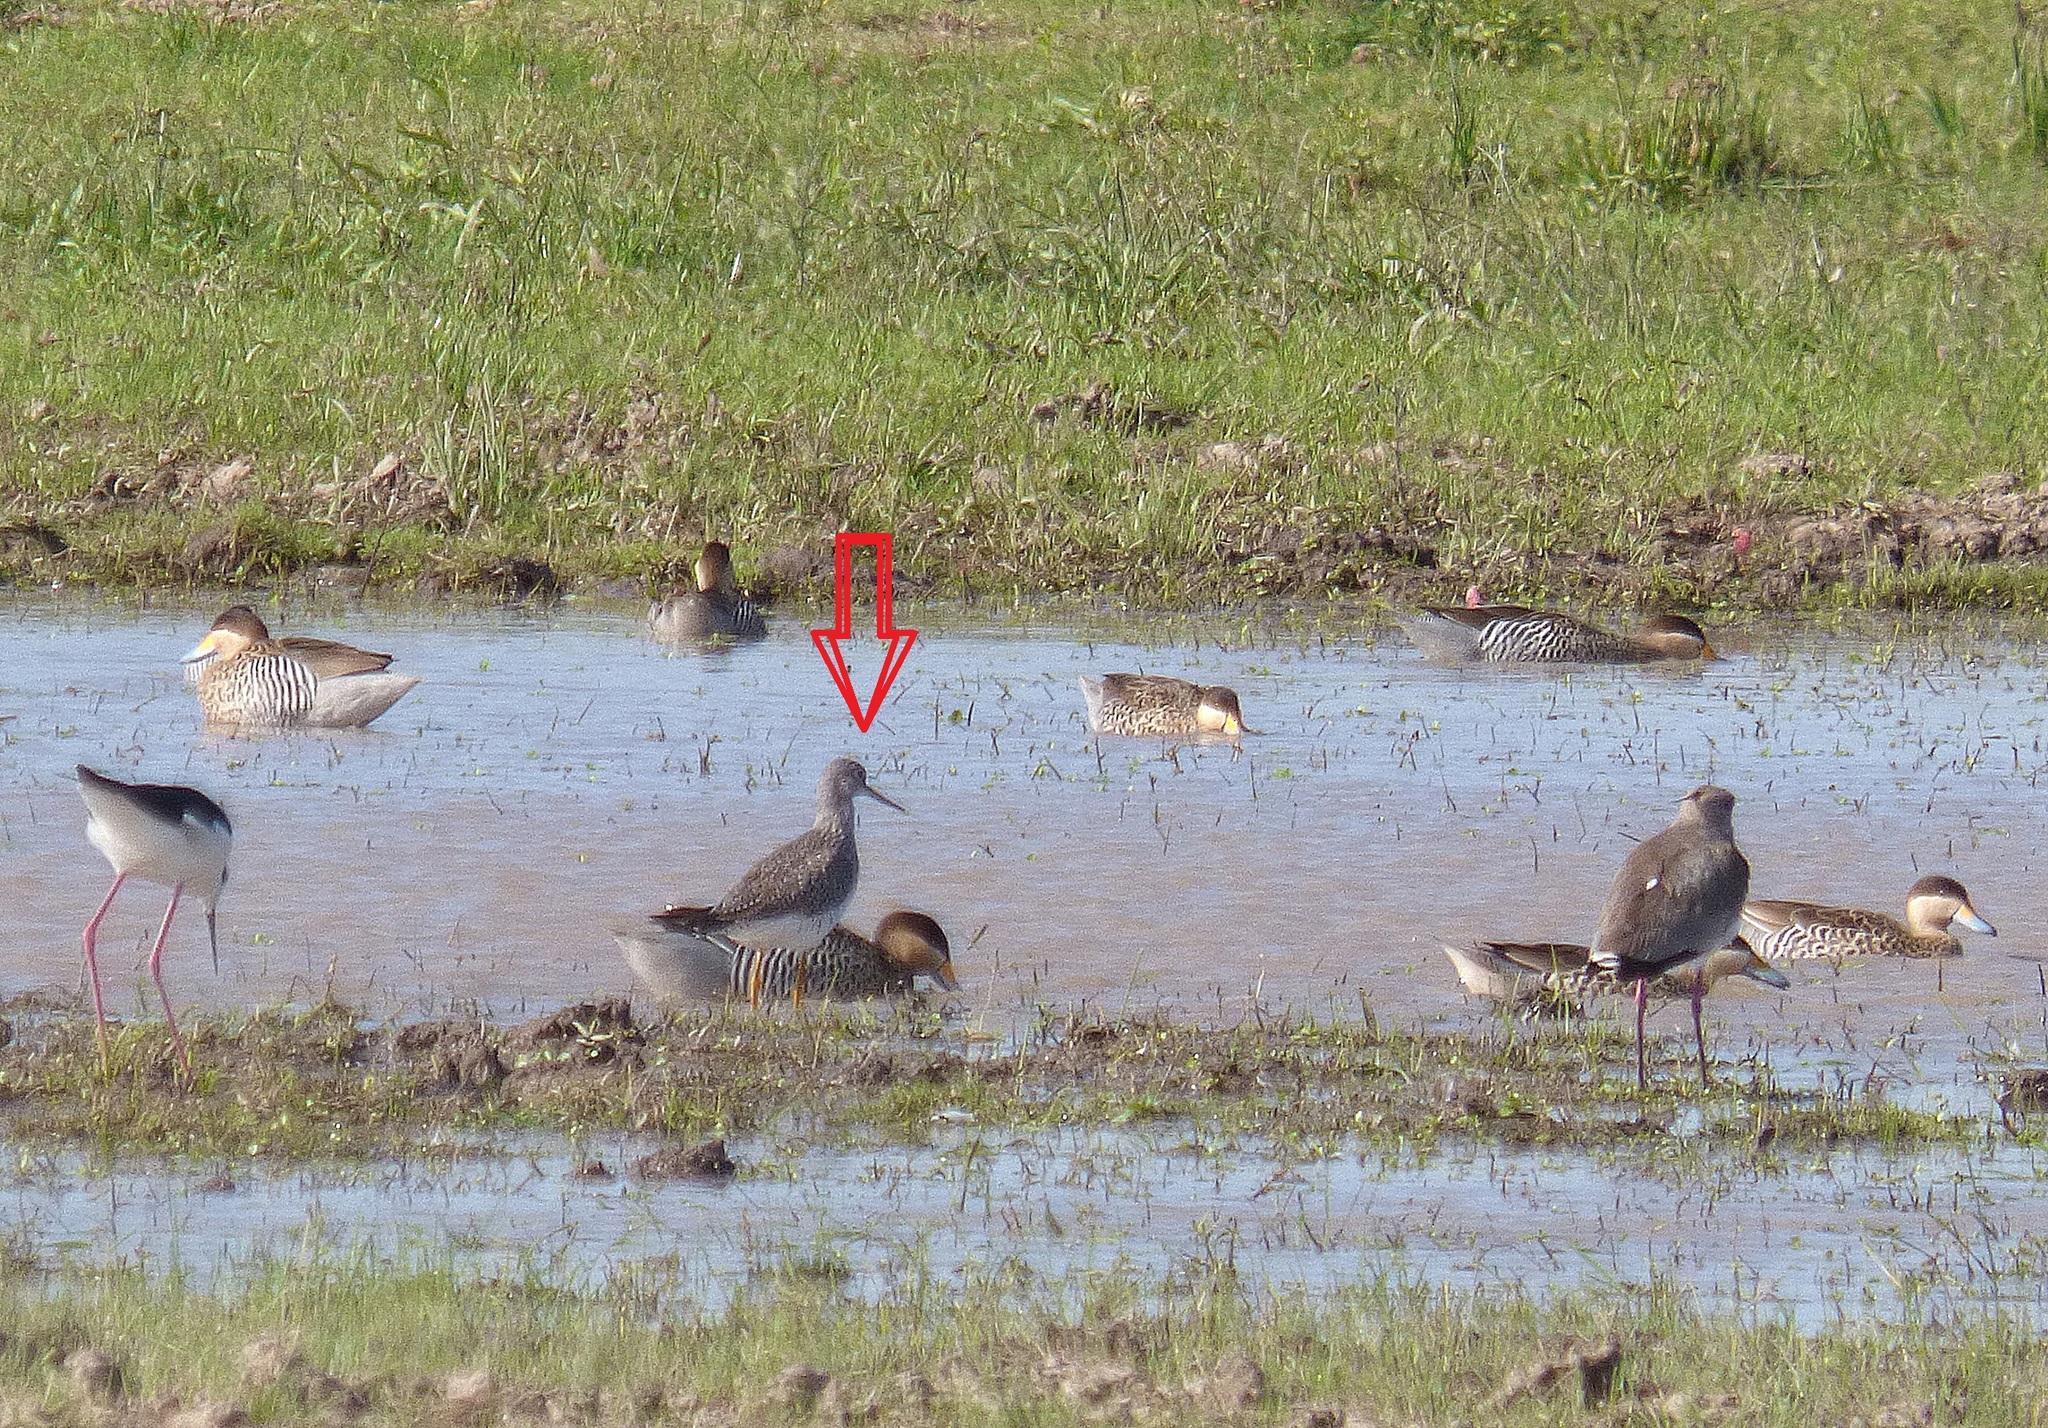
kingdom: Animalia
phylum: Chordata
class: Aves
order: Charadriiformes
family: Scolopacidae
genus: Tringa
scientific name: Tringa melanoleuca
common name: Greater yellowlegs
